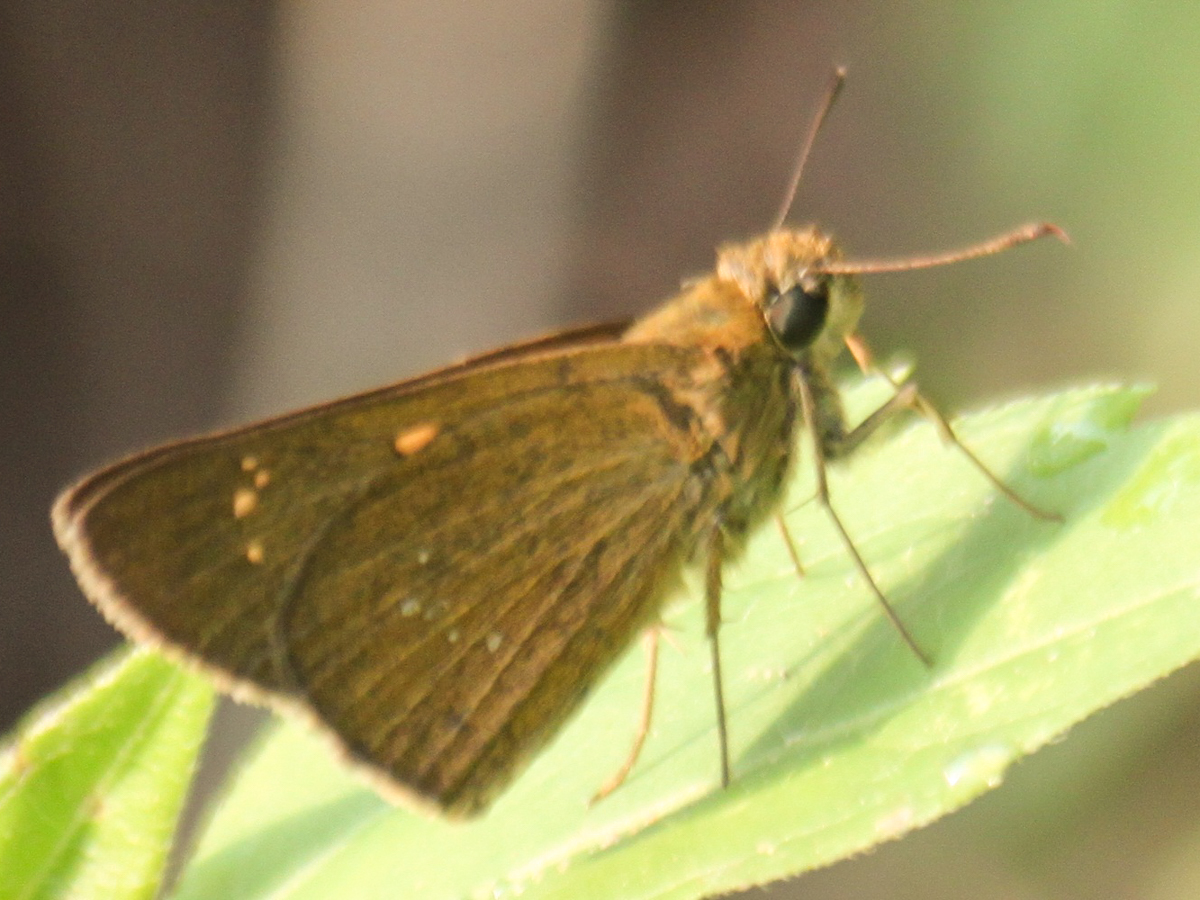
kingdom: Animalia
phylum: Arthropoda
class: Insecta
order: Lepidoptera
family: Hesperiidae
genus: Polytremis
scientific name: Polytremis lubricans
